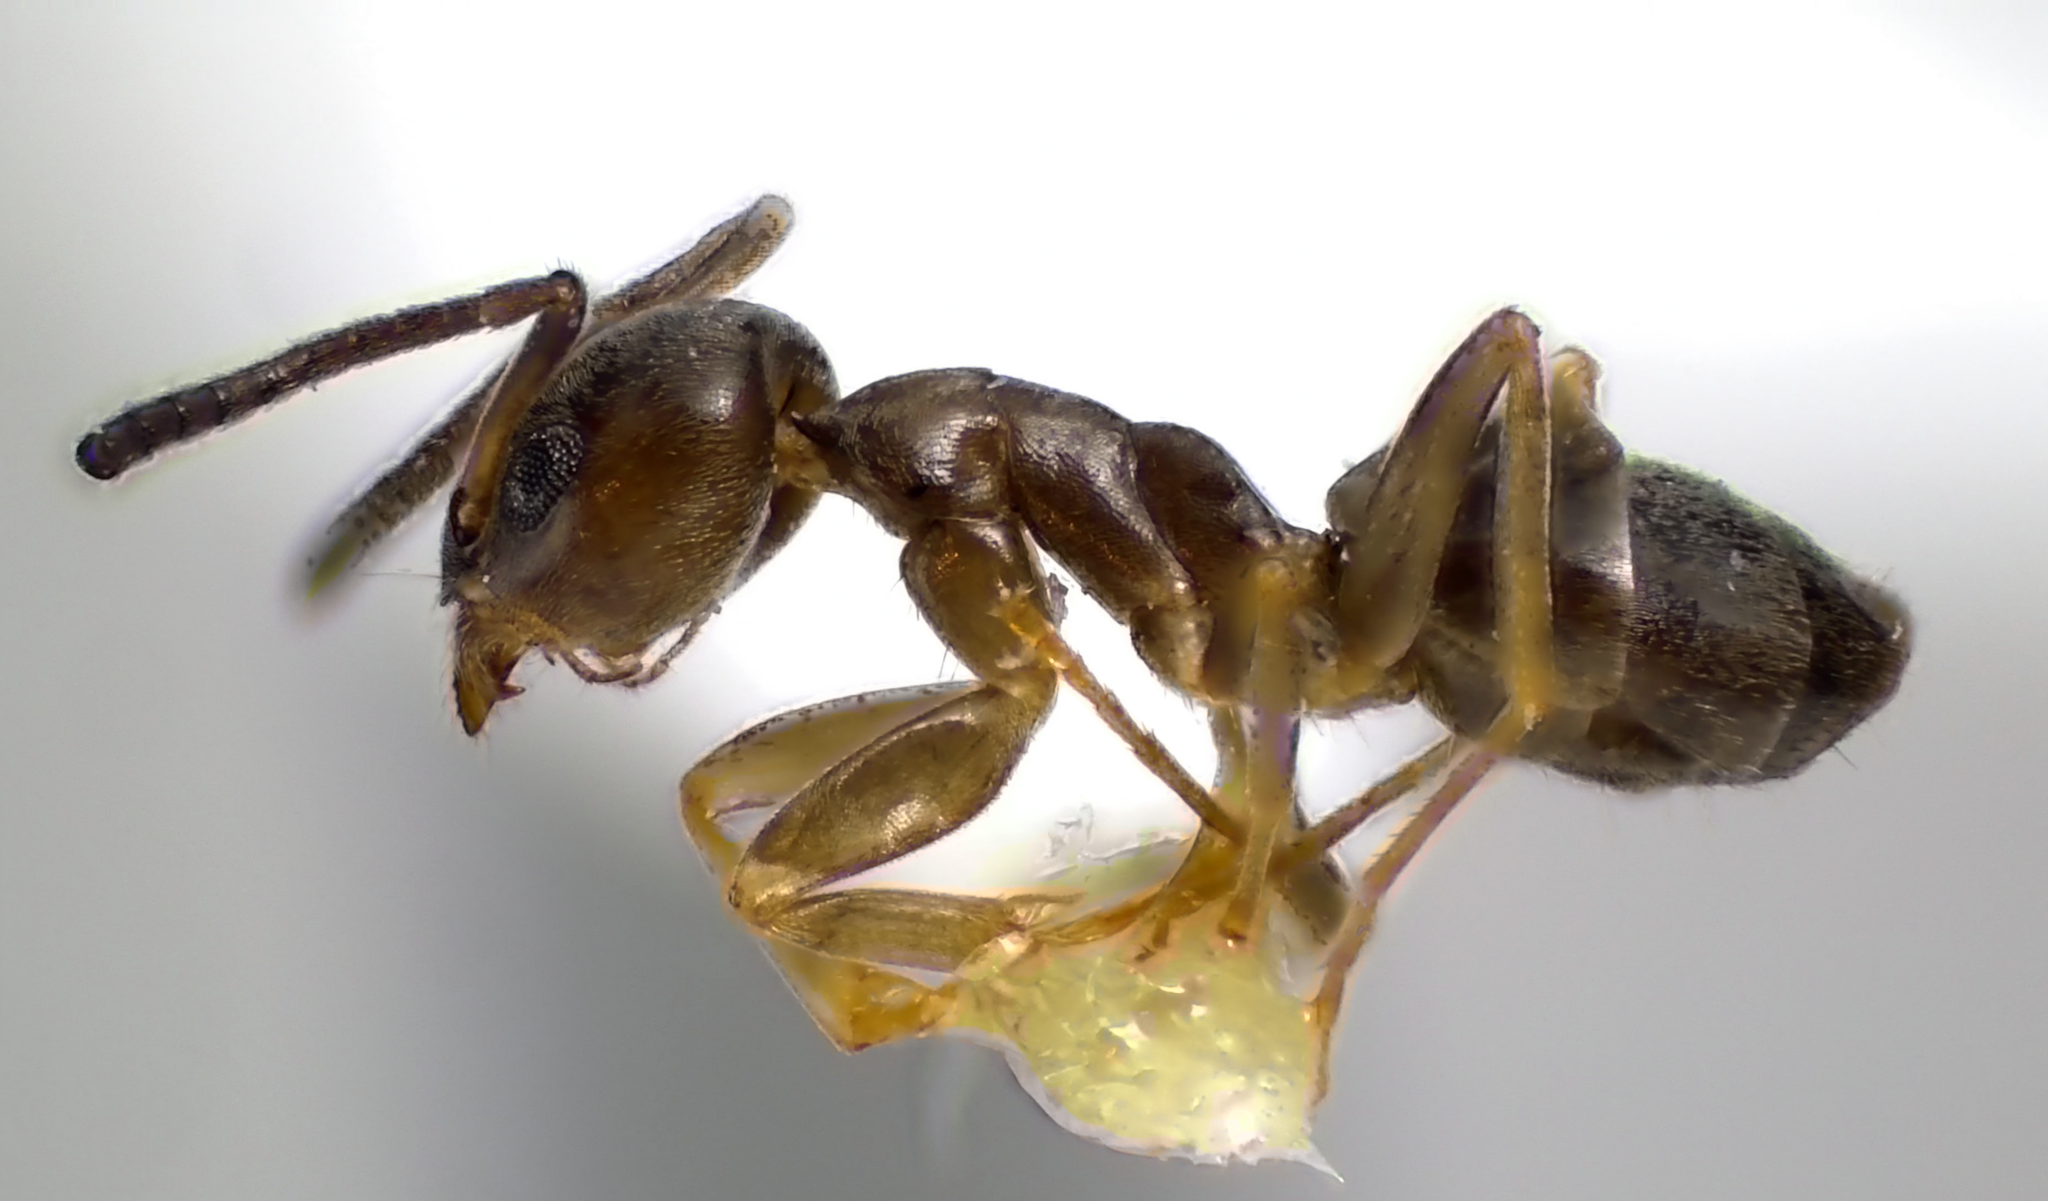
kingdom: Animalia
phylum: Arthropoda
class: Insecta
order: Hymenoptera
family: Formicidae
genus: Tapinoma
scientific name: Tapinoma sessile
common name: Odorous house ant
